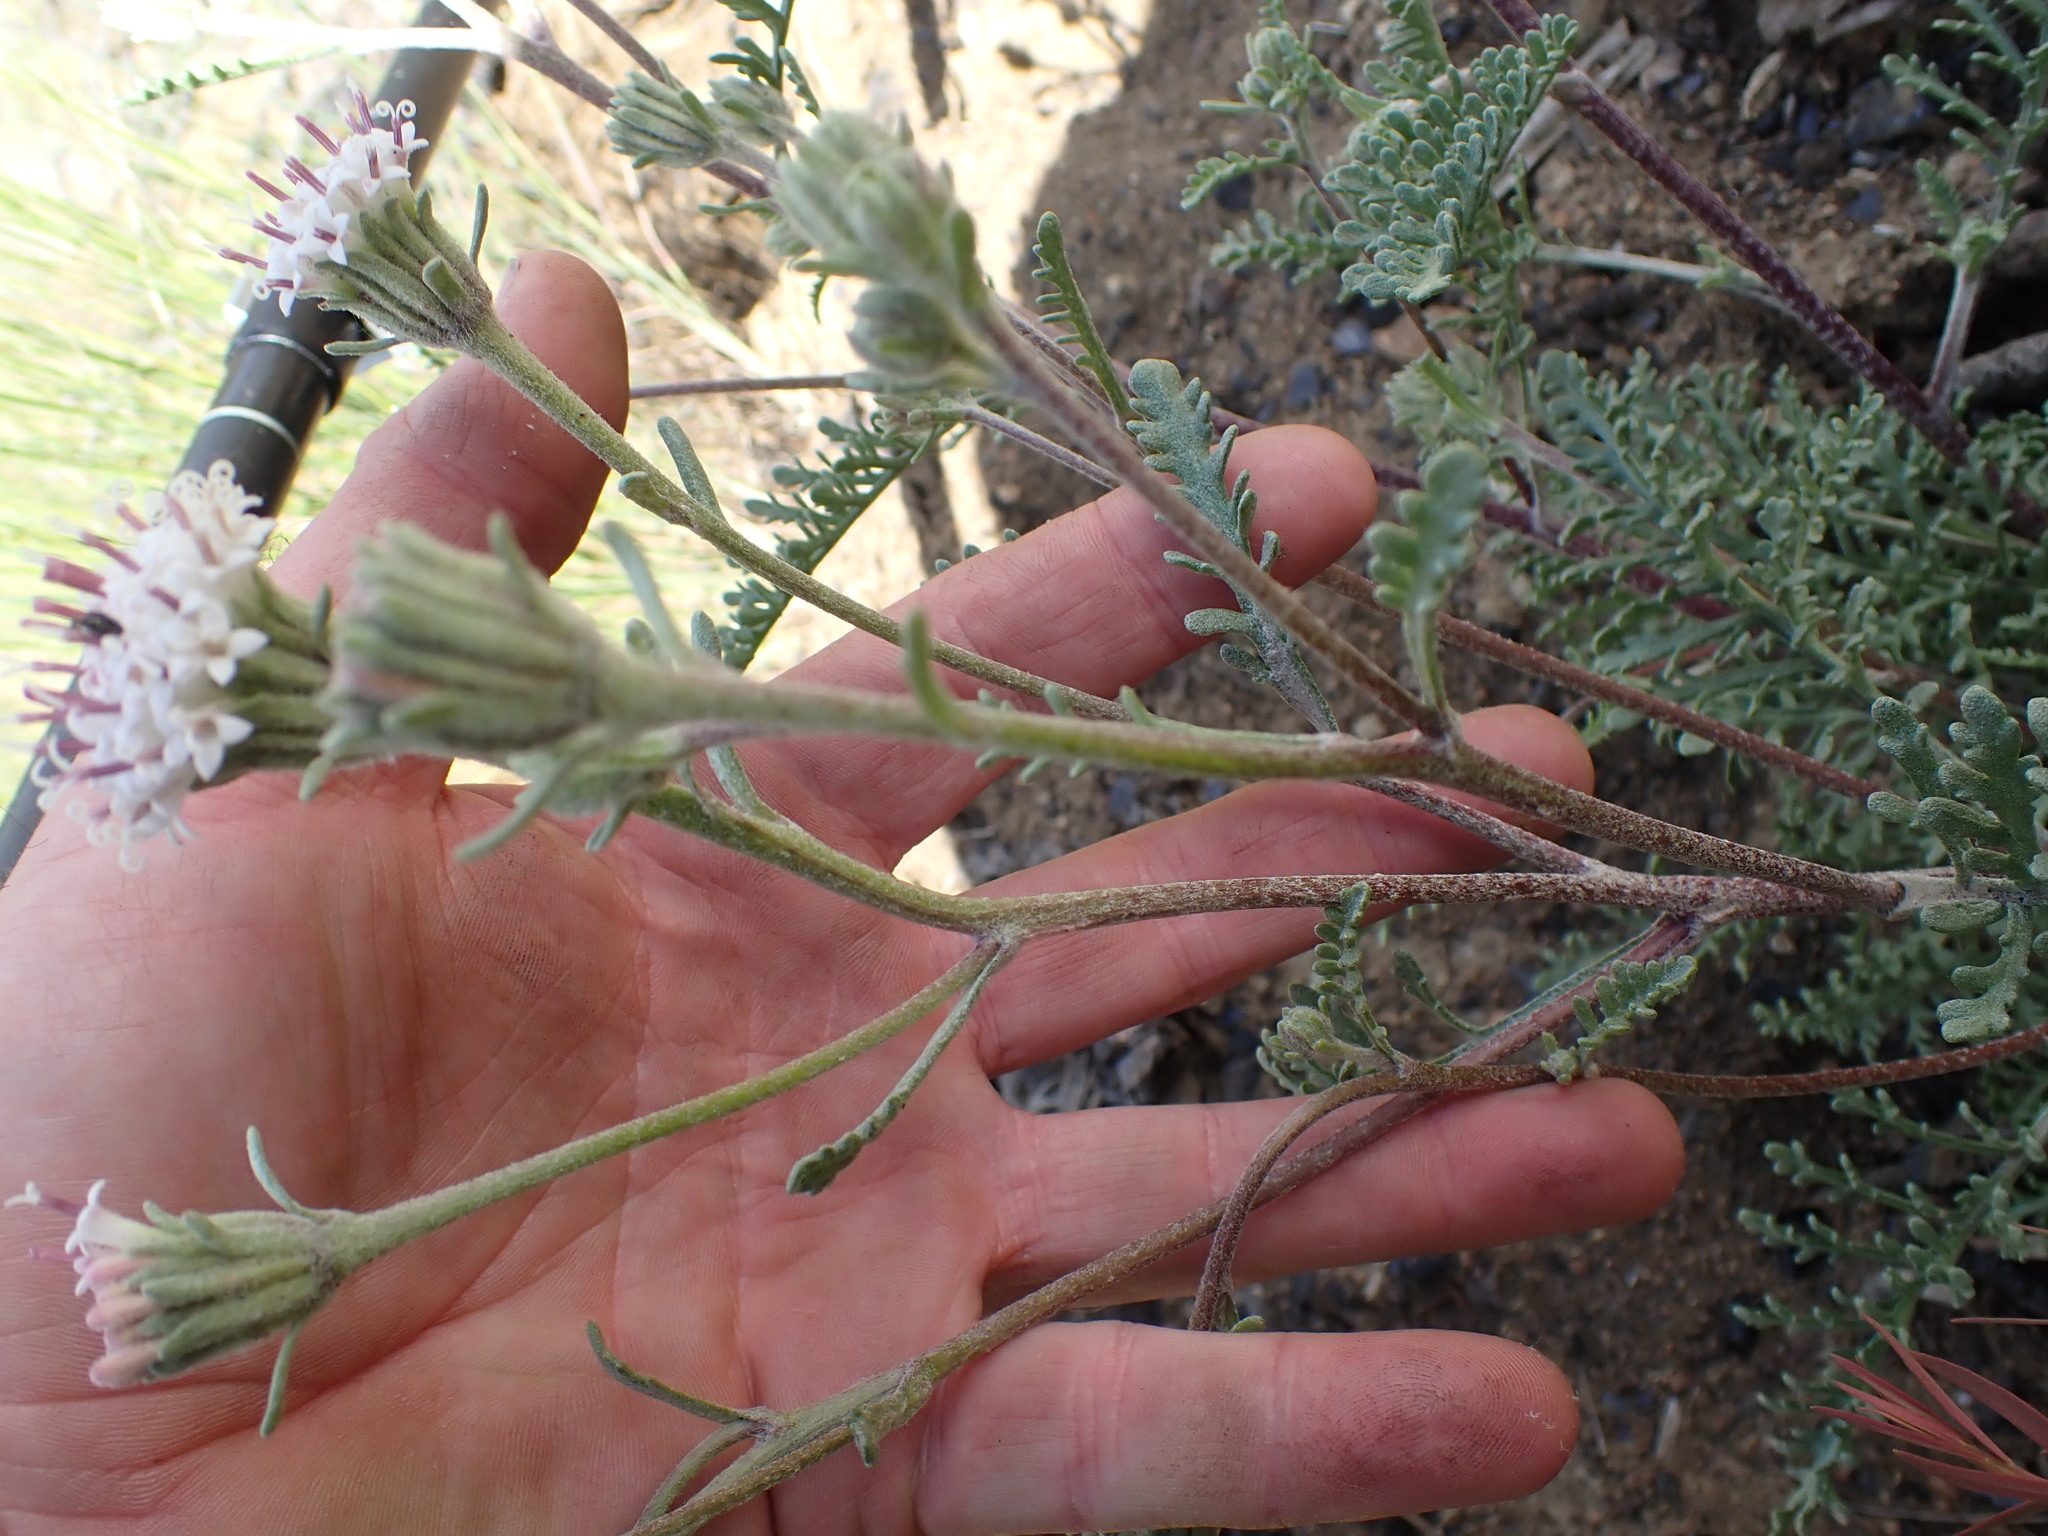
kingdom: Plantae
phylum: Tracheophyta
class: Magnoliopsida
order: Asterales
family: Asteraceae
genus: Chaenactis
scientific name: Chaenactis douglasii
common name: Hoary pincushion
